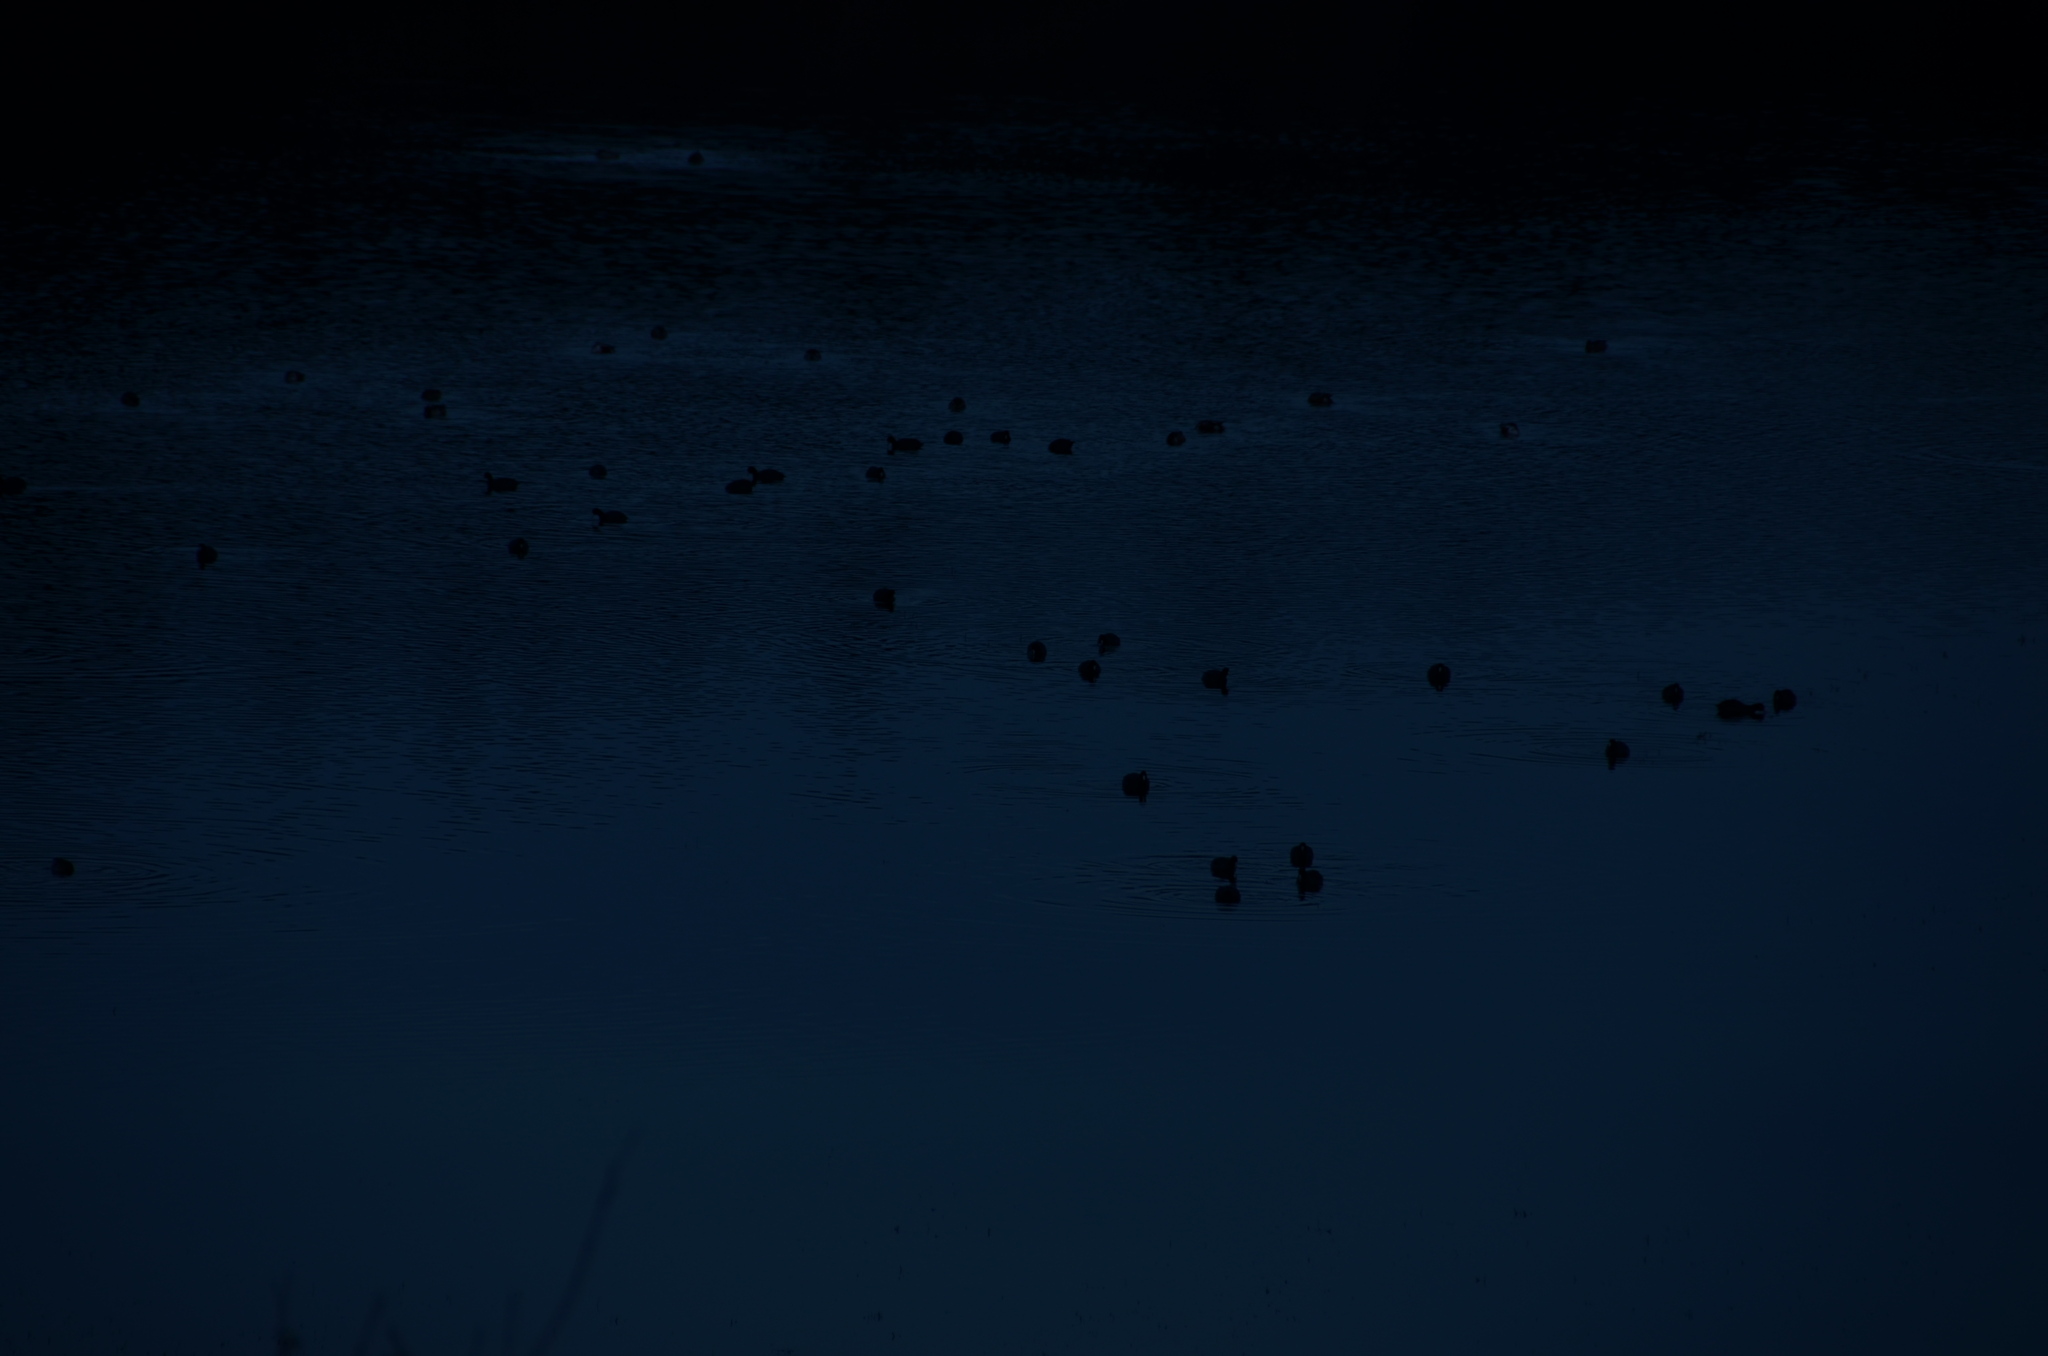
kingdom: Animalia
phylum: Chordata
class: Aves
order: Gruiformes
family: Rallidae
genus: Fulica
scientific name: Fulica americana
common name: American coot
